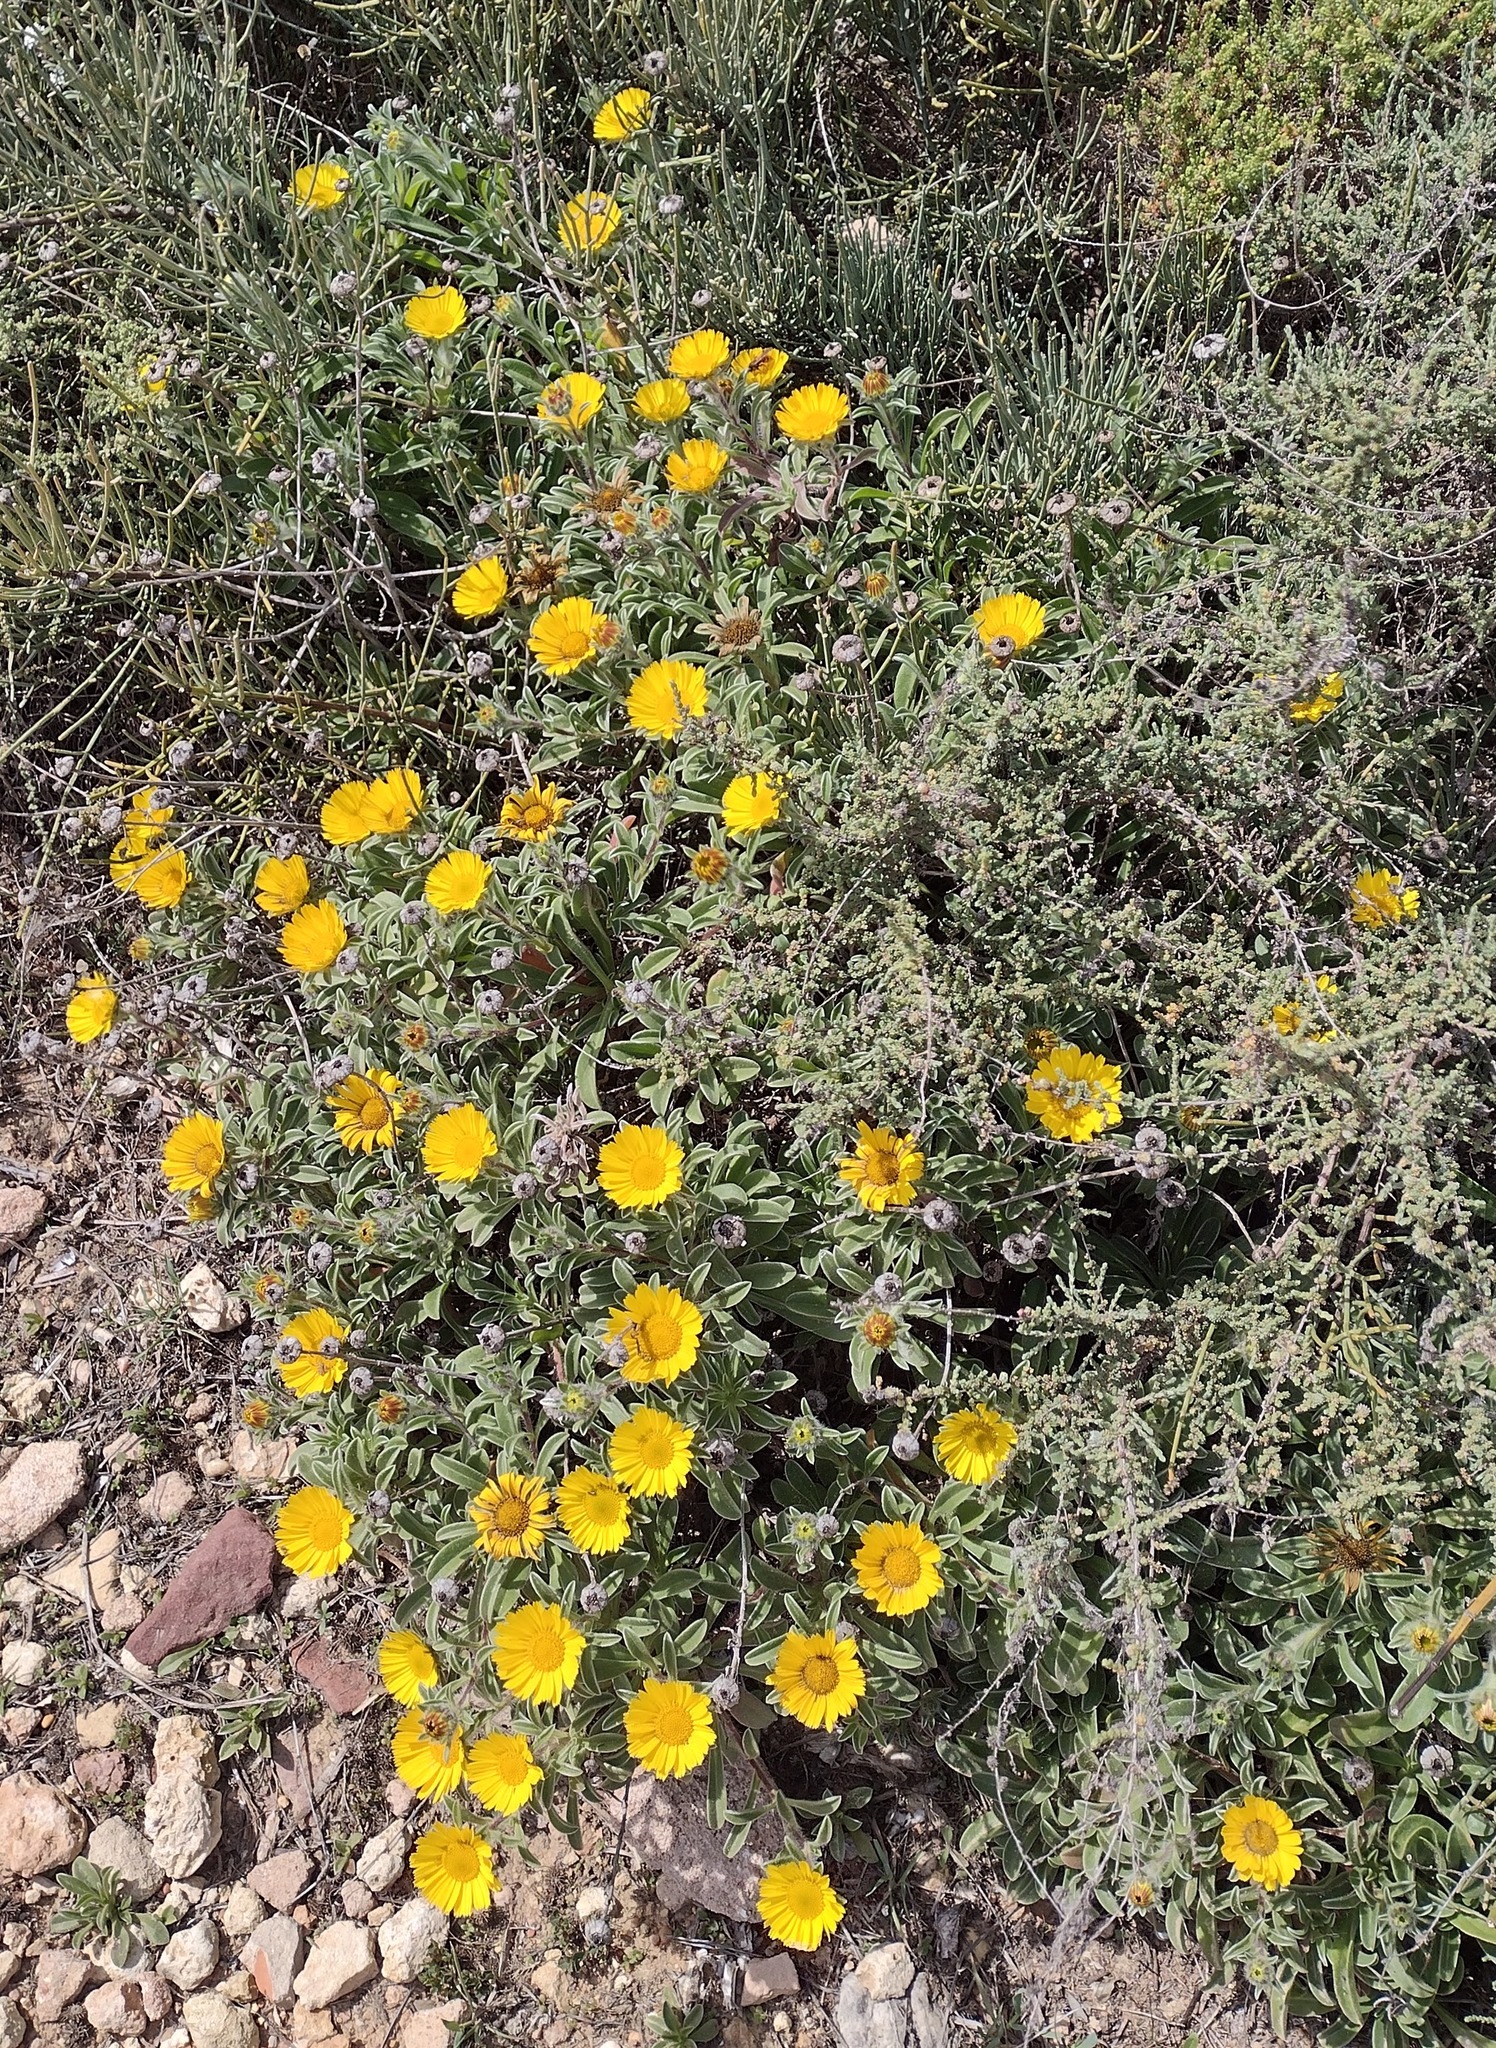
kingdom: Plantae
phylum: Tracheophyta
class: Magnoliopsida
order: Asterales
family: Asteraceae
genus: Pallenis
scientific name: Pallenis maritima
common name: Golden coin daisy
